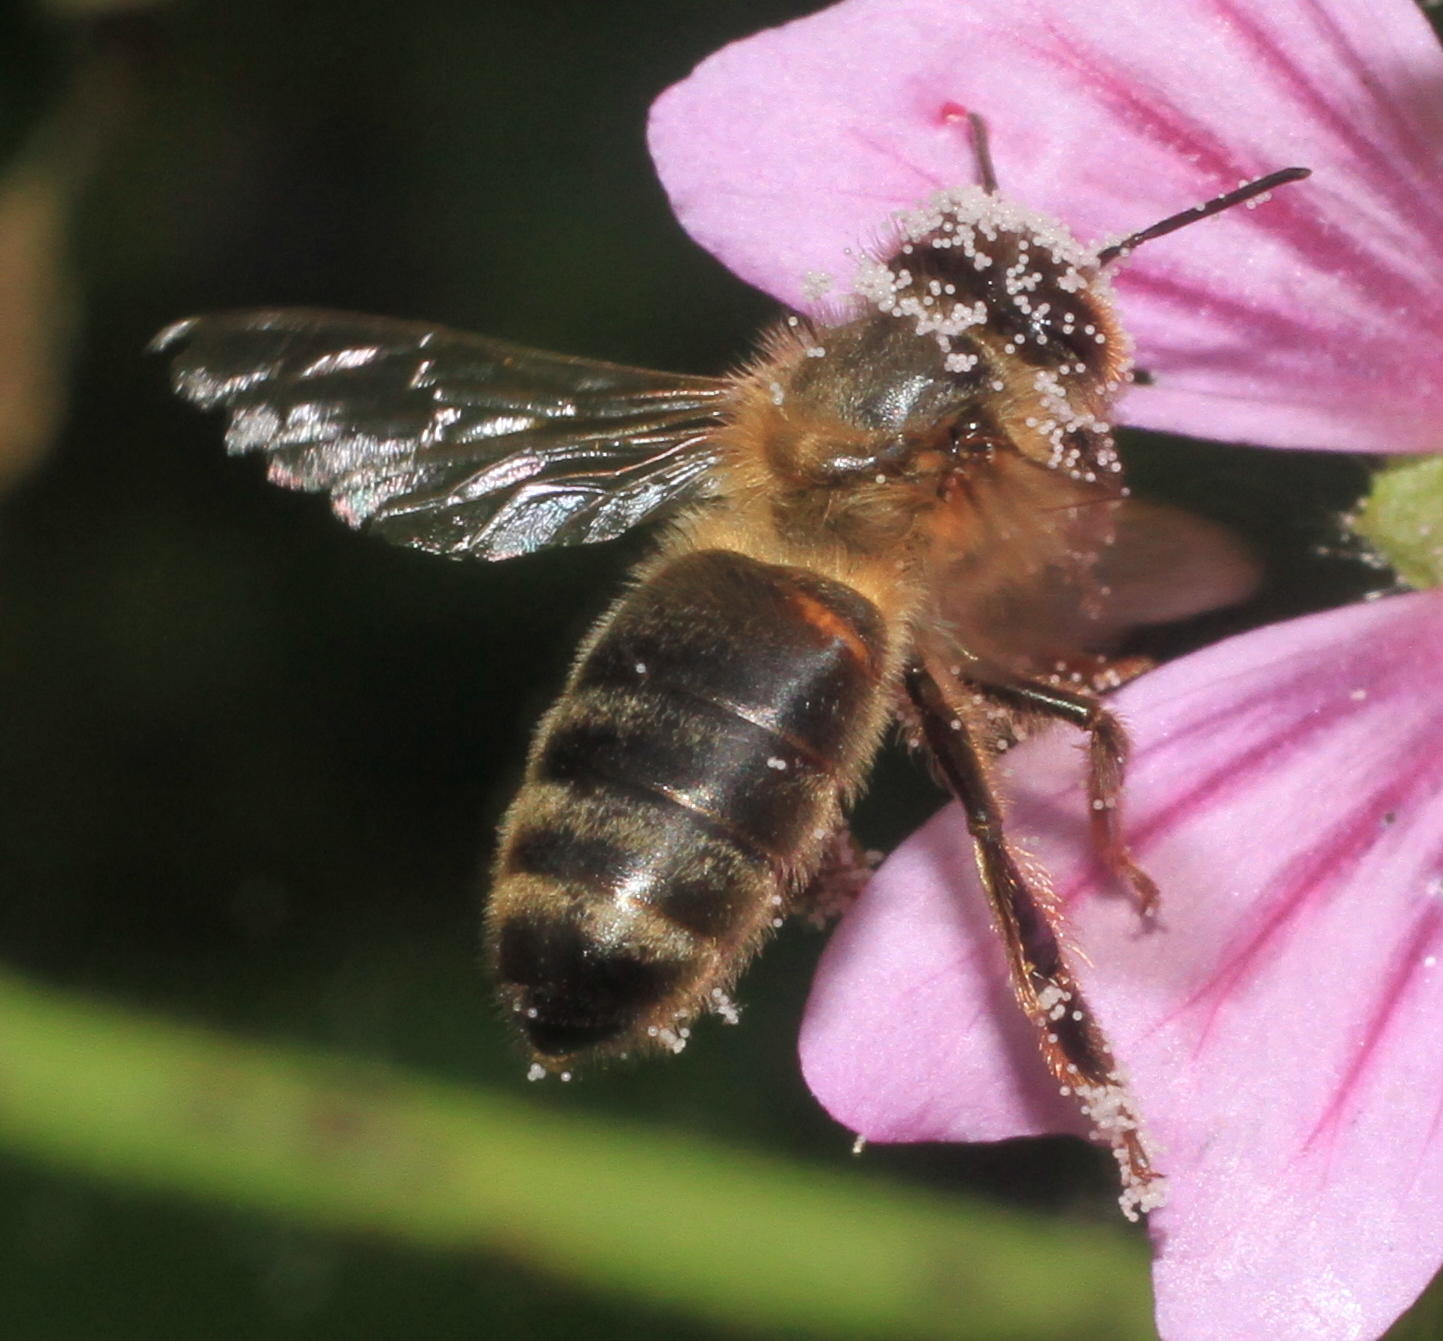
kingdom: Animalia
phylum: Arthropoda
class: Insecta
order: Hymenoptera
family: Apidae
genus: Apis
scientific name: Apis mellifera
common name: Honey bee
